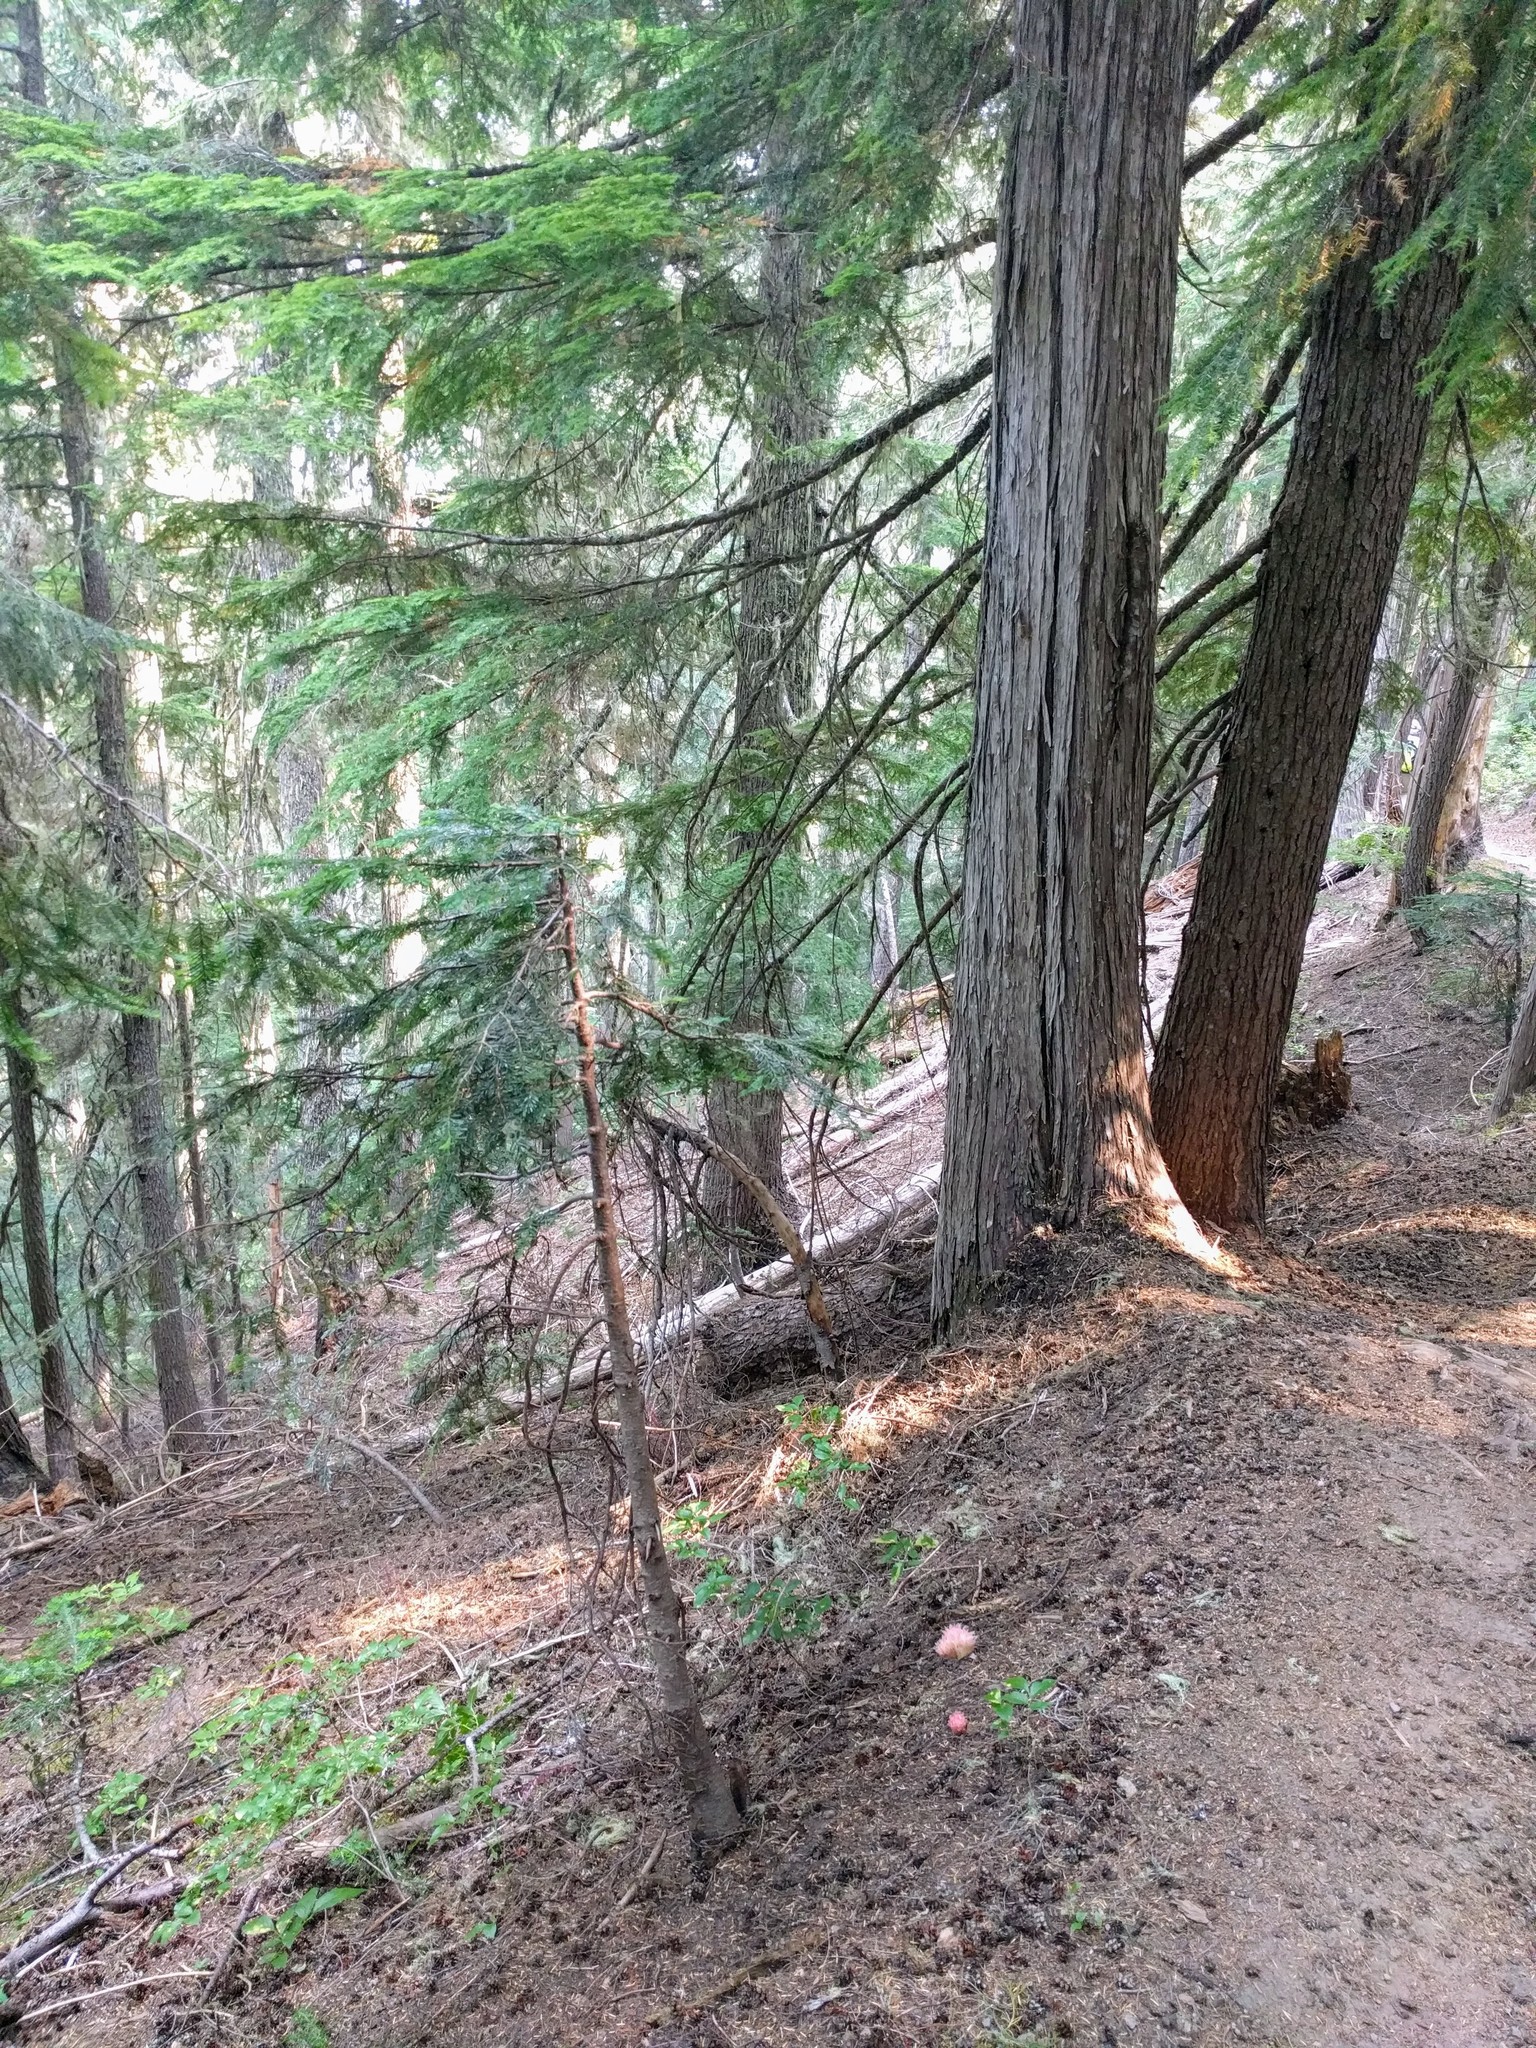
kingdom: Plantae
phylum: Tracheophyta
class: Magnoliopsida
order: Ericales
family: Ericaceae
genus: Hemitomes
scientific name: Hemitomes congestum
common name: Cone plant
